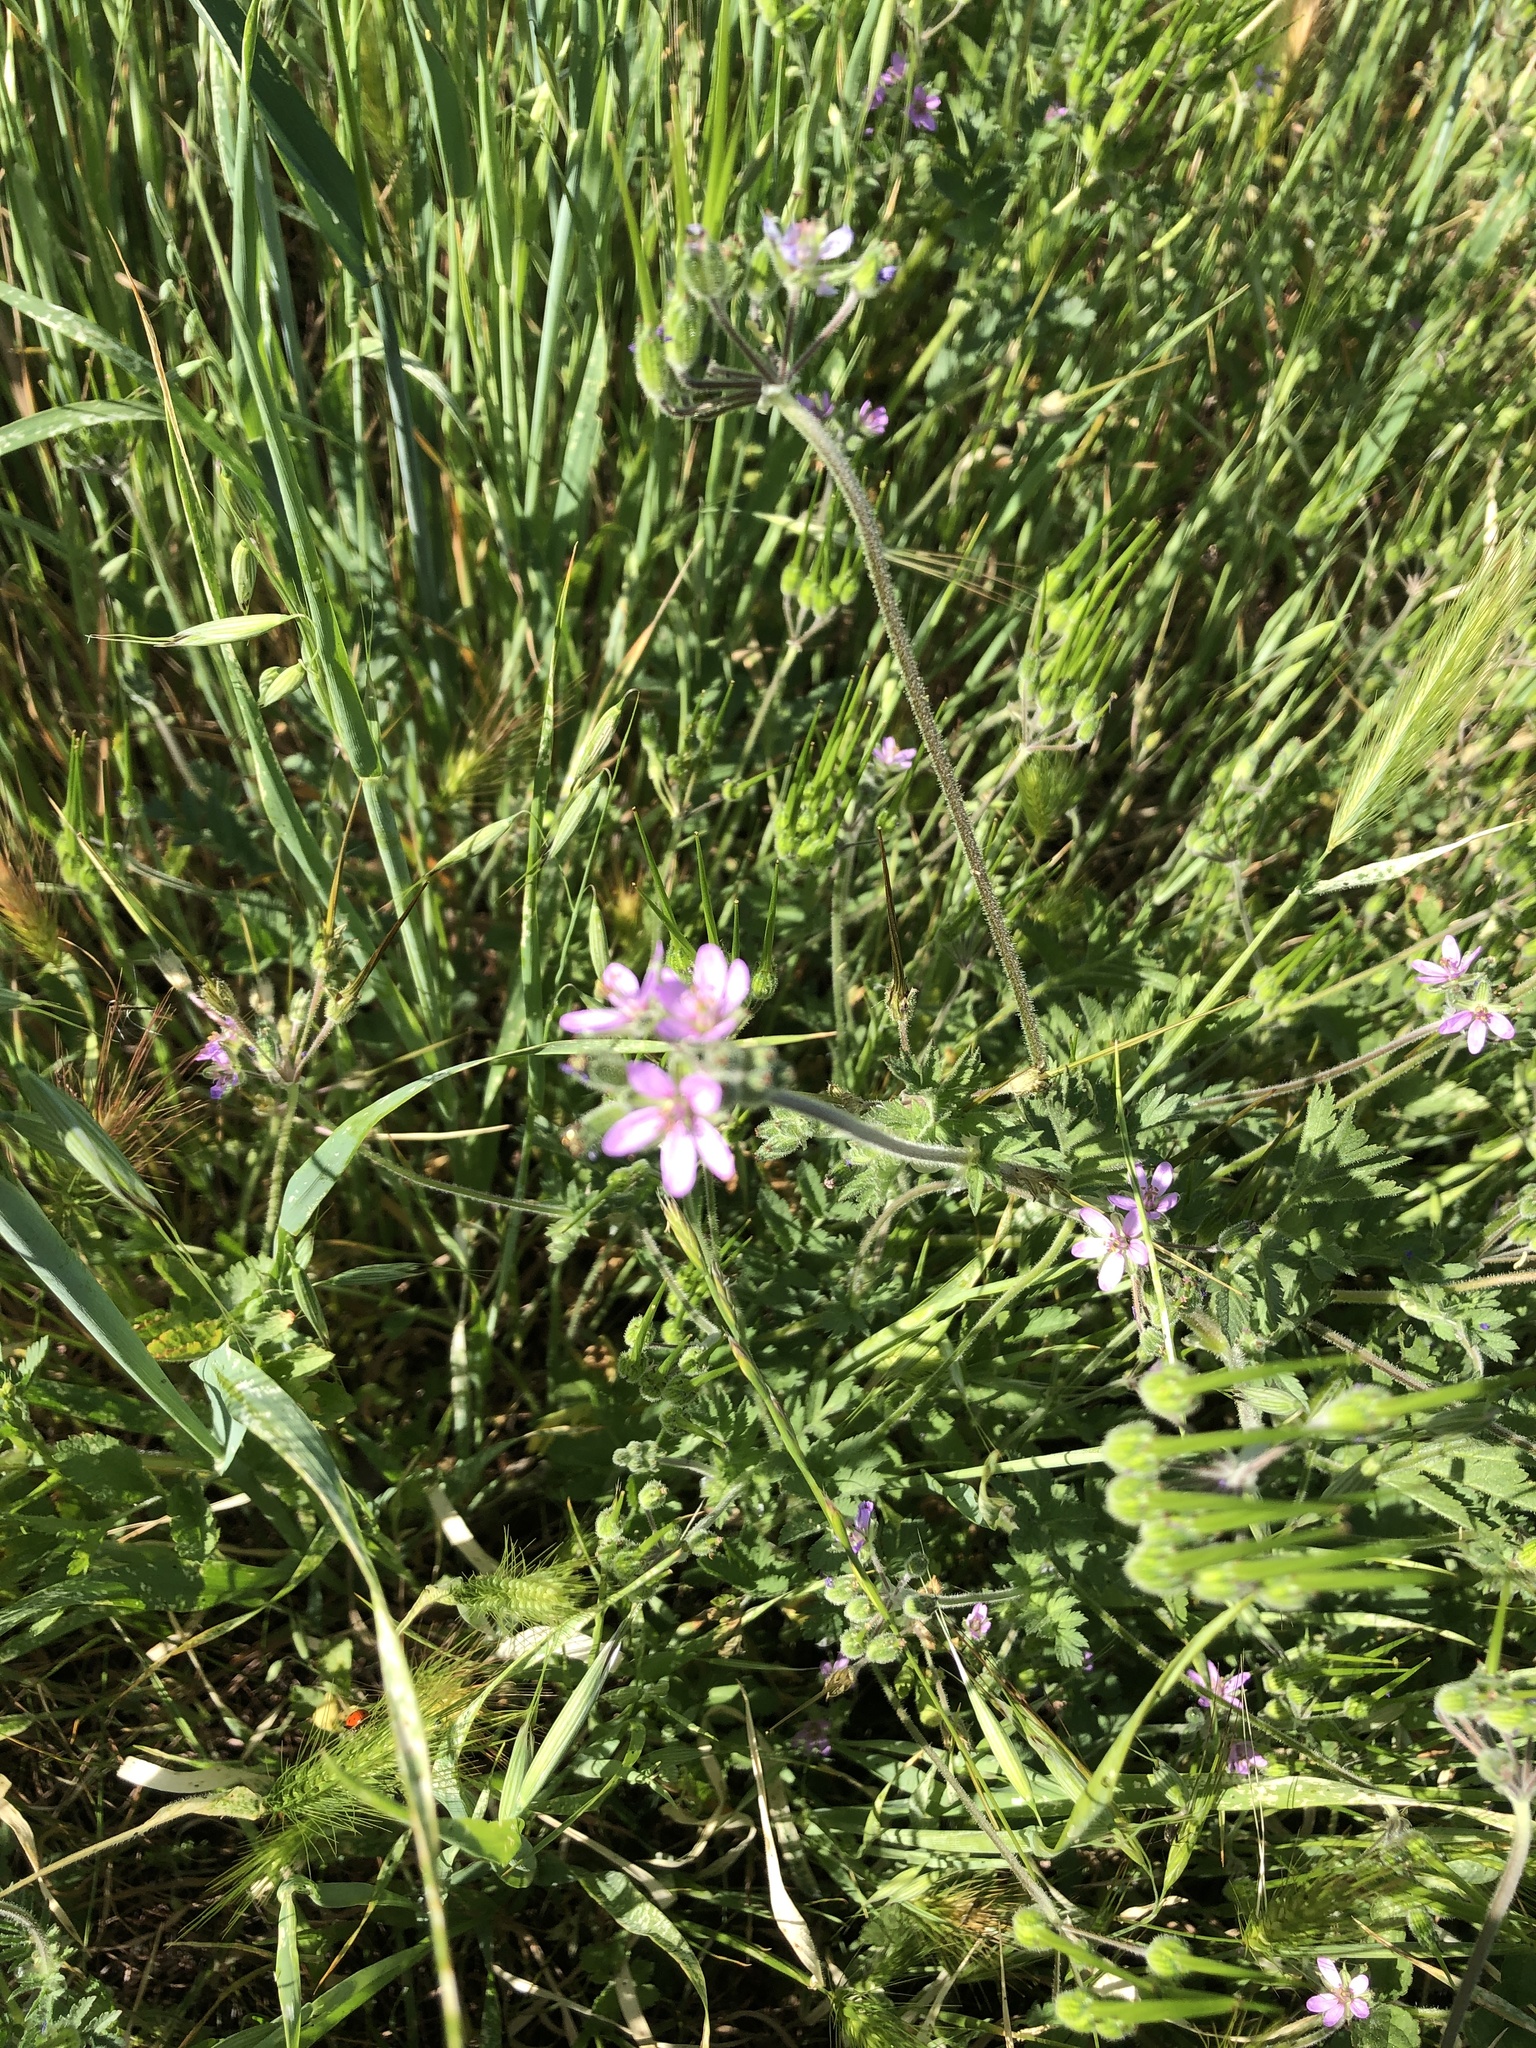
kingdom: Plantae
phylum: Tracheophyta
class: Magnoliopsida
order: Geraniales
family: Geraniaceae
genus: Erodium
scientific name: Erodium moschatum
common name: Musk stork's-bill
